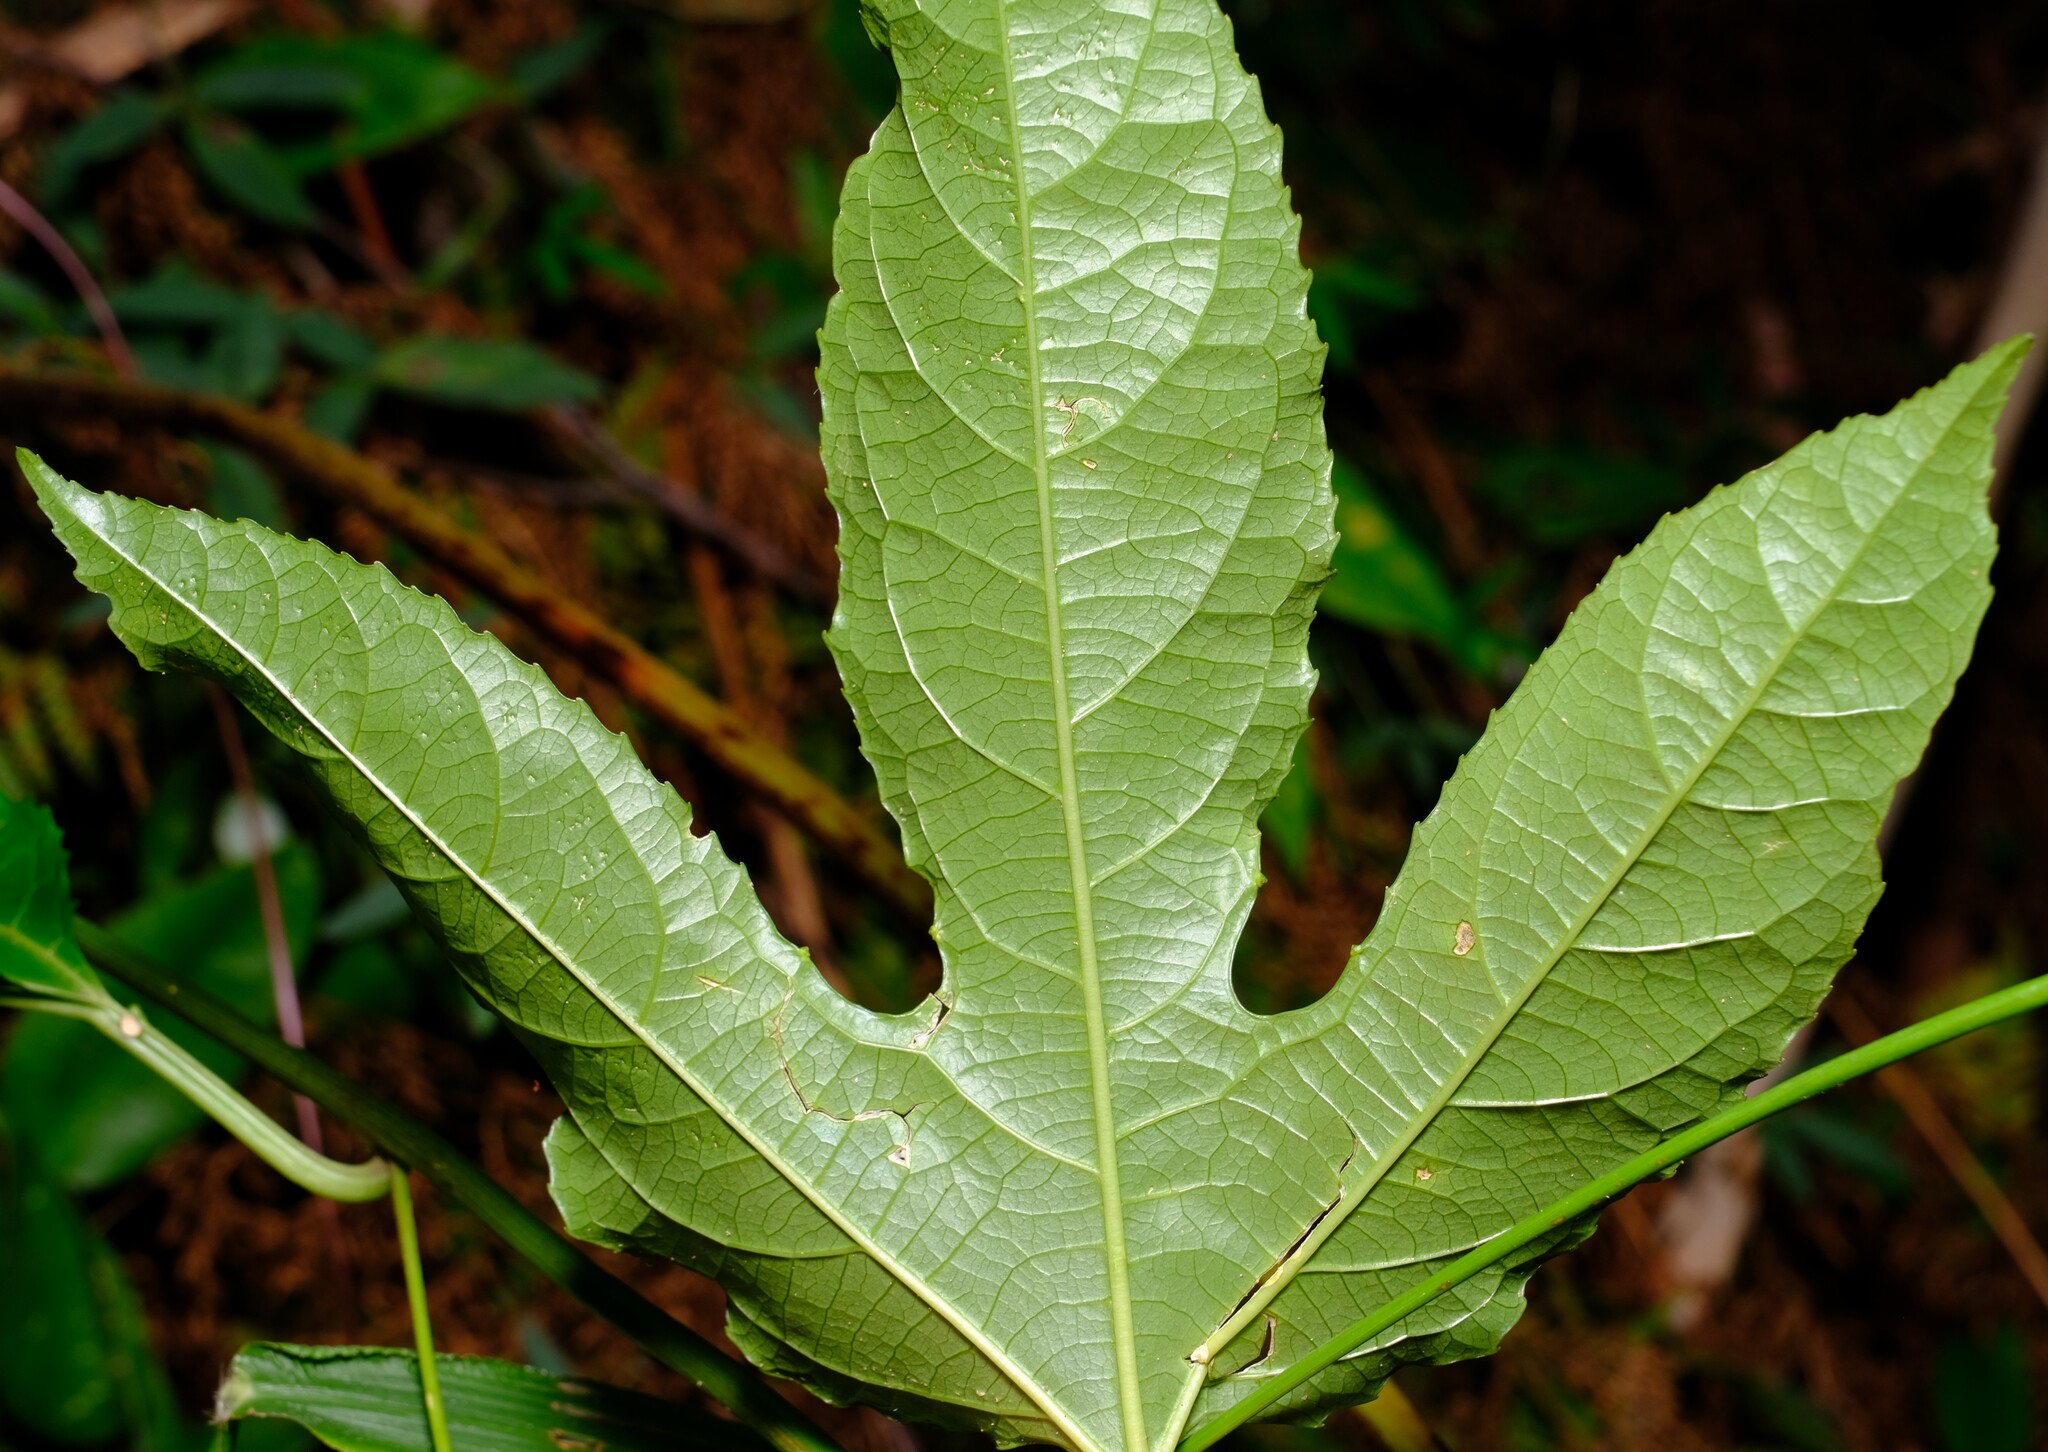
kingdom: Plantae
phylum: Tracheophyta
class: Magnoliopsida
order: Malpighiales
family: Passifloraceae
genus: Passiflora
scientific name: Passiflora edulis
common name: Purple granadilla
